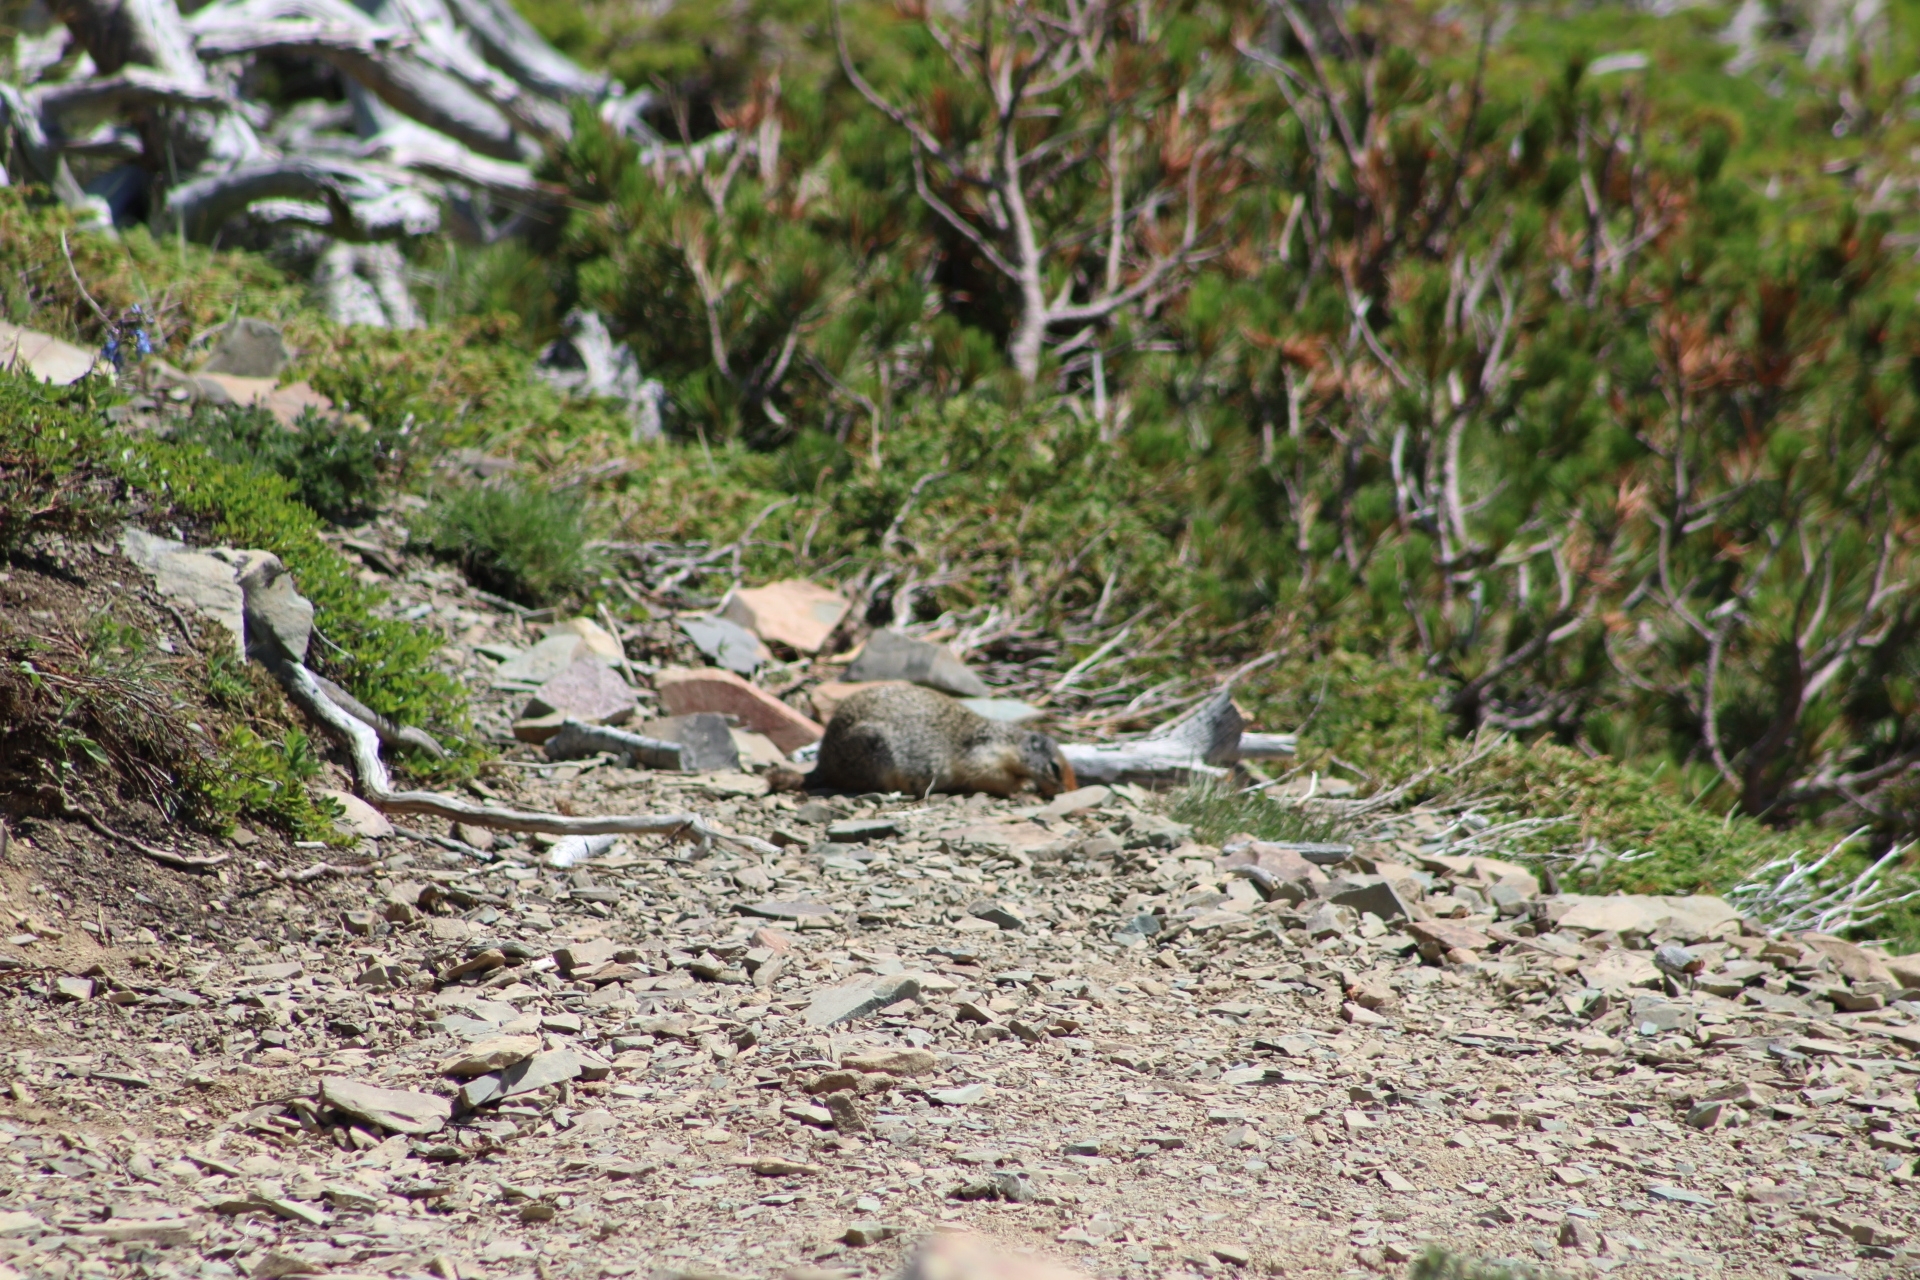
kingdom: Animalia
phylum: Chordata
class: Mammalia
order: Rodentia
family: Sciuridae
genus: Urocitellus
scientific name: Urocitellus columbianus
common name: Columbian ground squirrel
